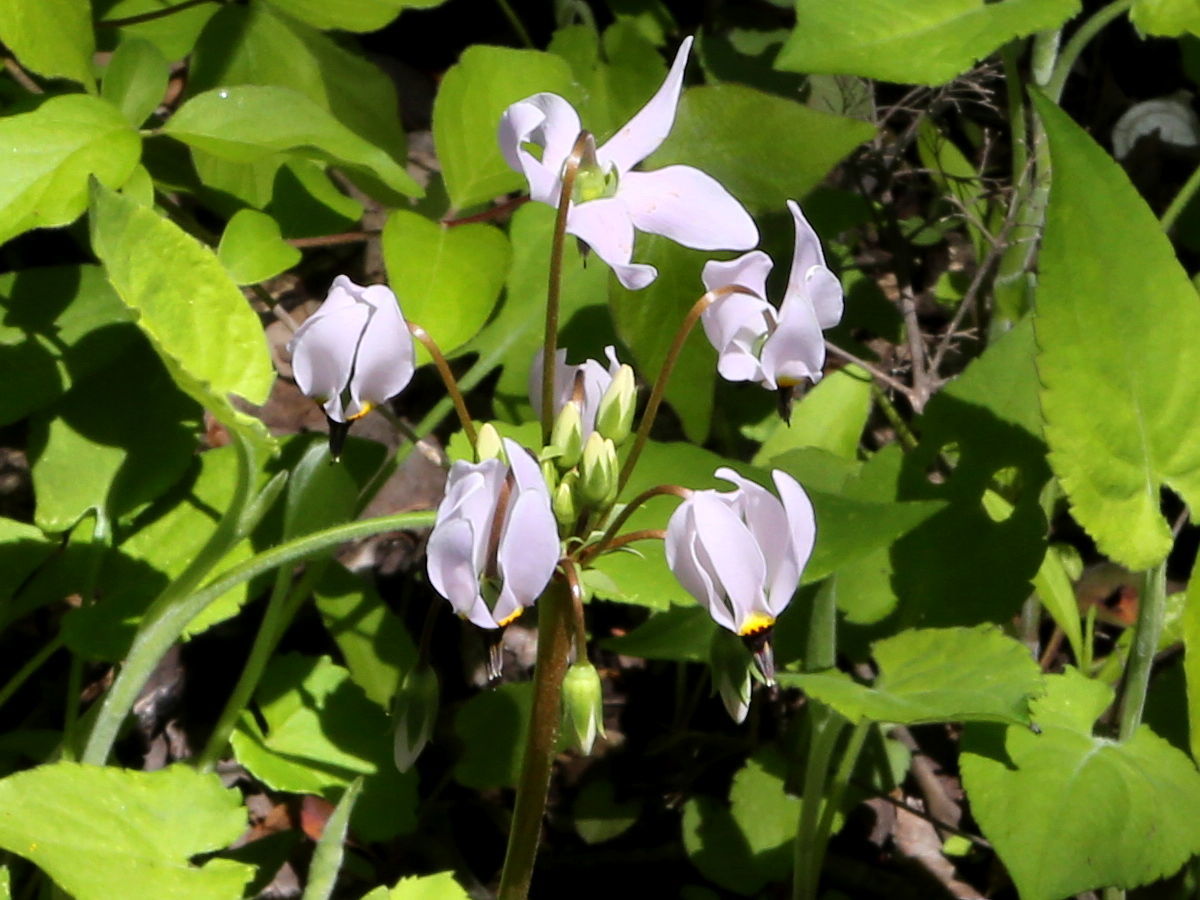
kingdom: Plantae
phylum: Tracheophyta
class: Magnoliopsida
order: Ericales
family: Primulaceae
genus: Dodecatheon
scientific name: Dodecatheon meadia
